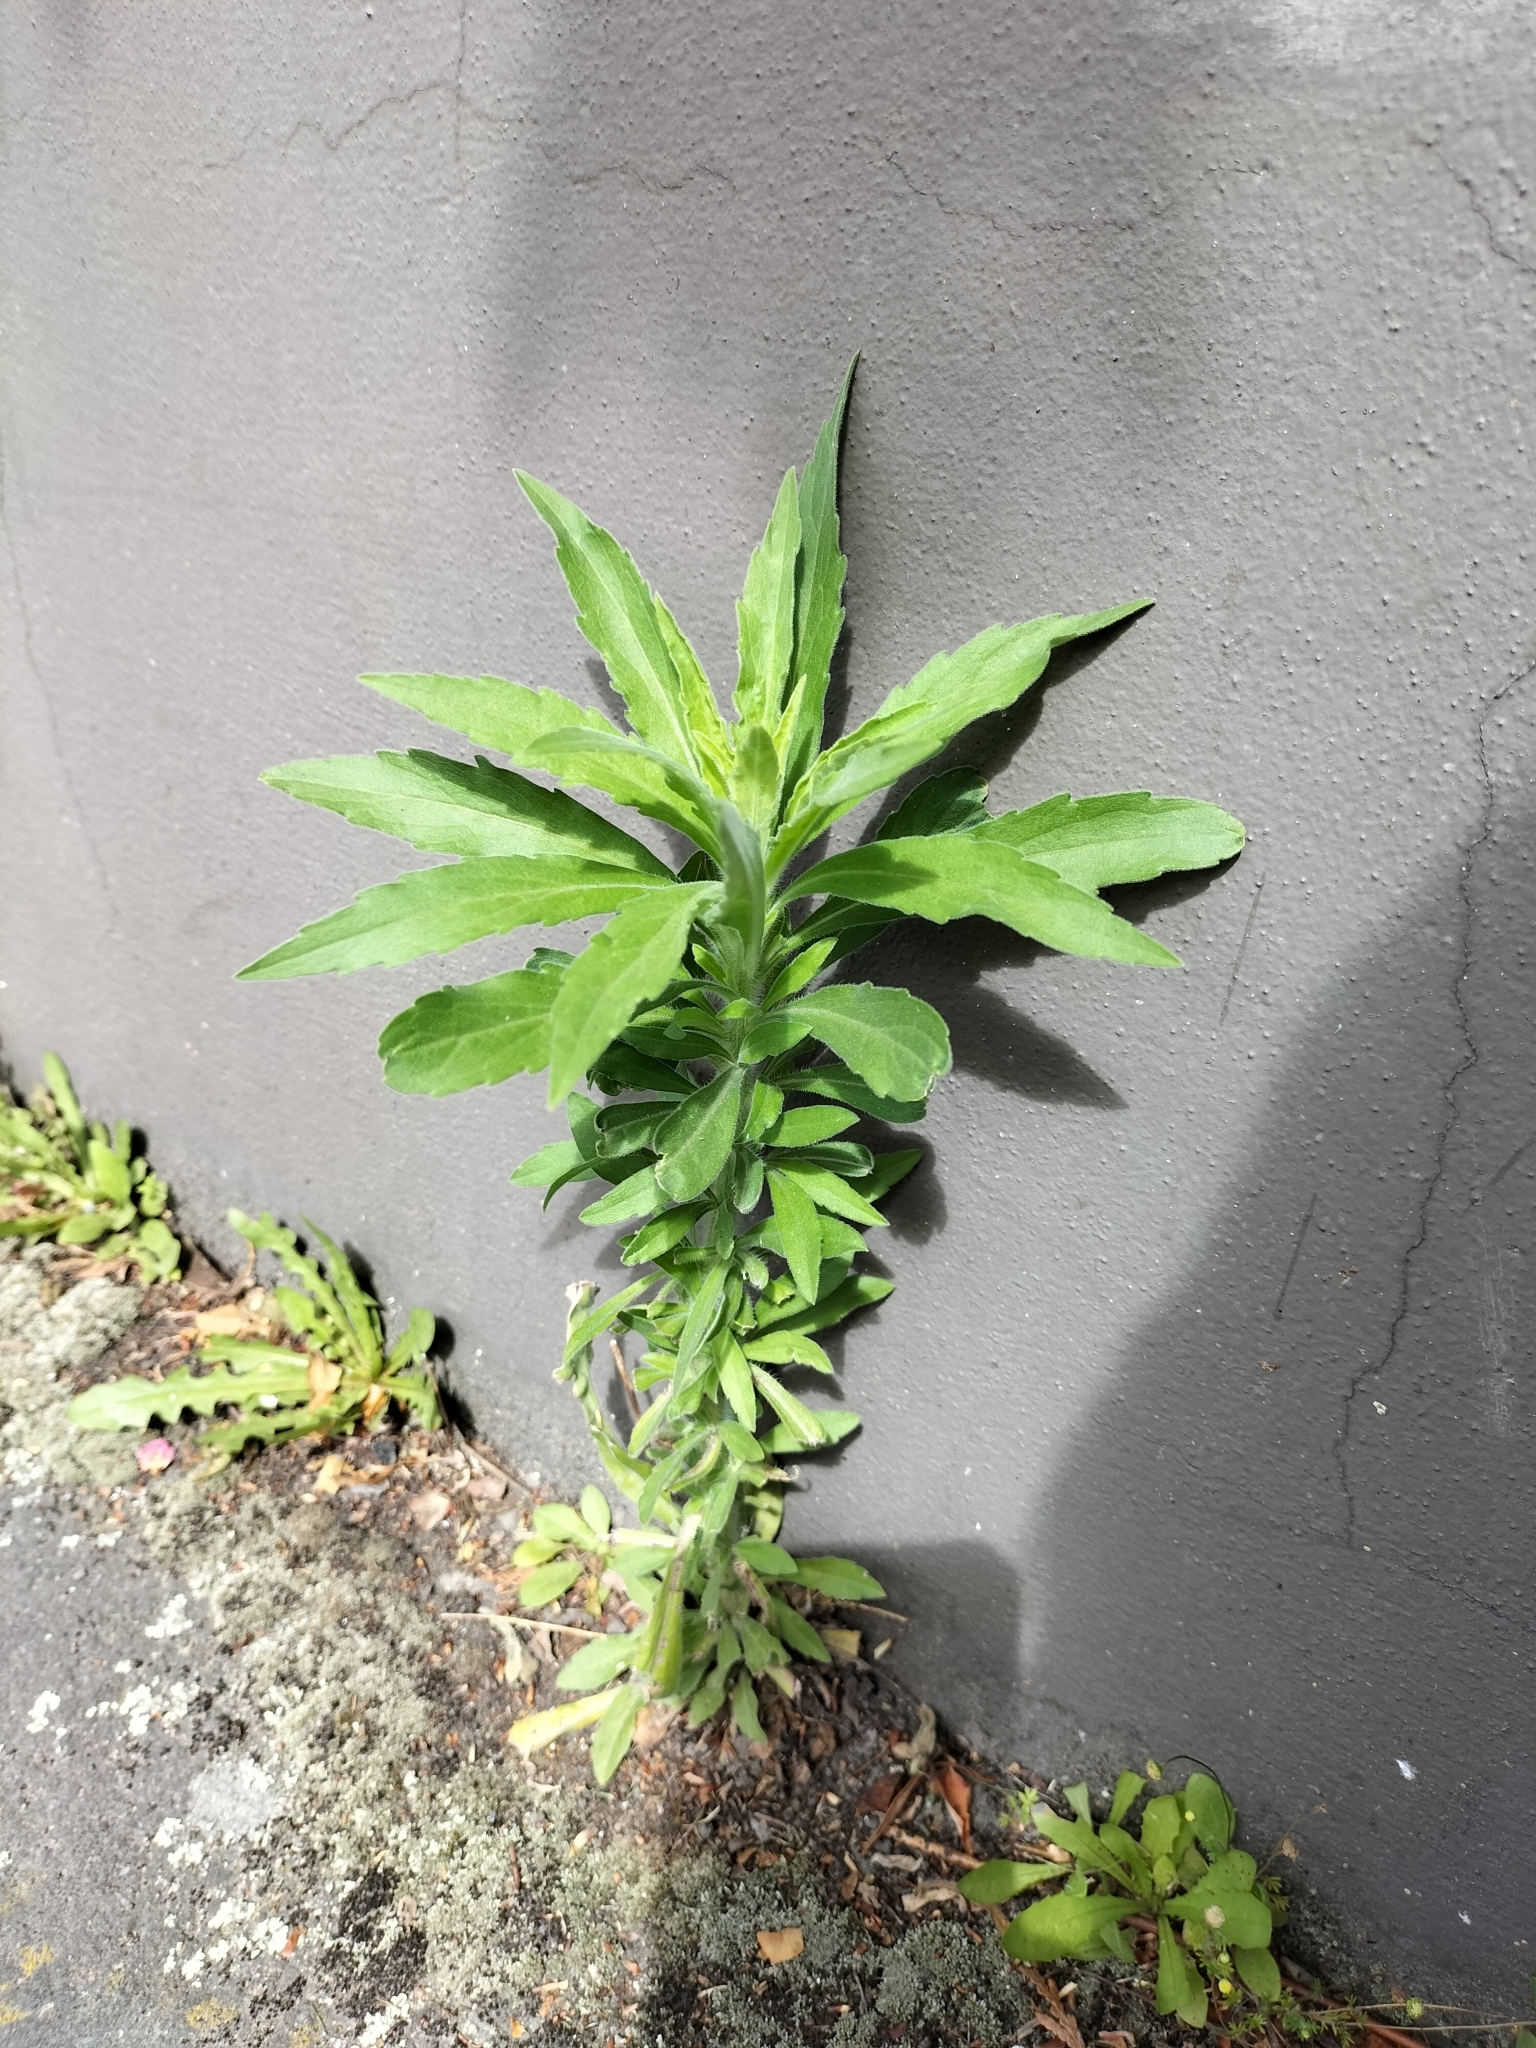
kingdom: Plantae
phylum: Tracheophyta
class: Magnoliopsida
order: Asterales
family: Asteraceae
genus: Erigeron
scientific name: Erigeron sumatrensis
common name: Daisy
